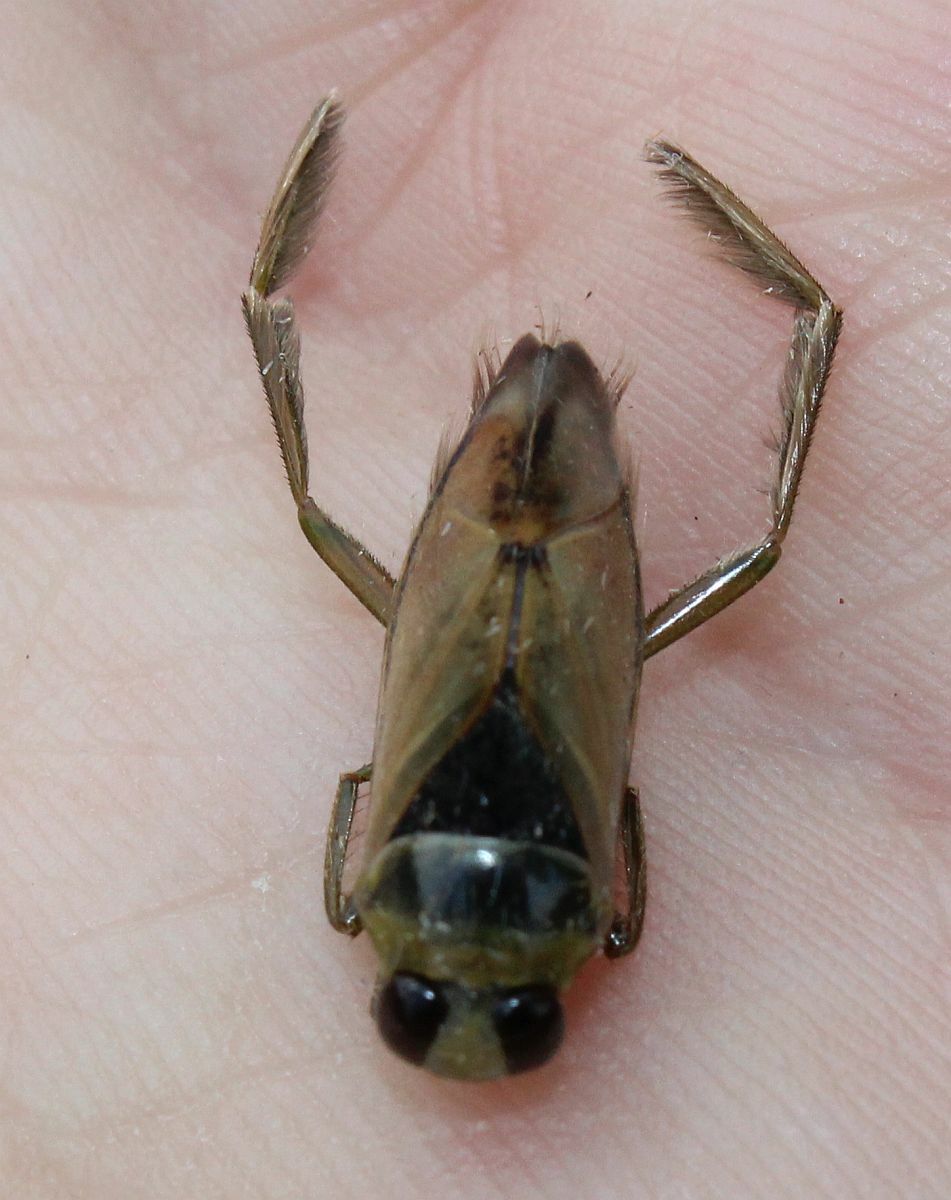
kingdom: Animalia
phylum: Arthropoda
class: Insecta
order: Hemiptera
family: Notonectidae
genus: Notonecta
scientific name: Notonecta glauca
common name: Common water-boatman
